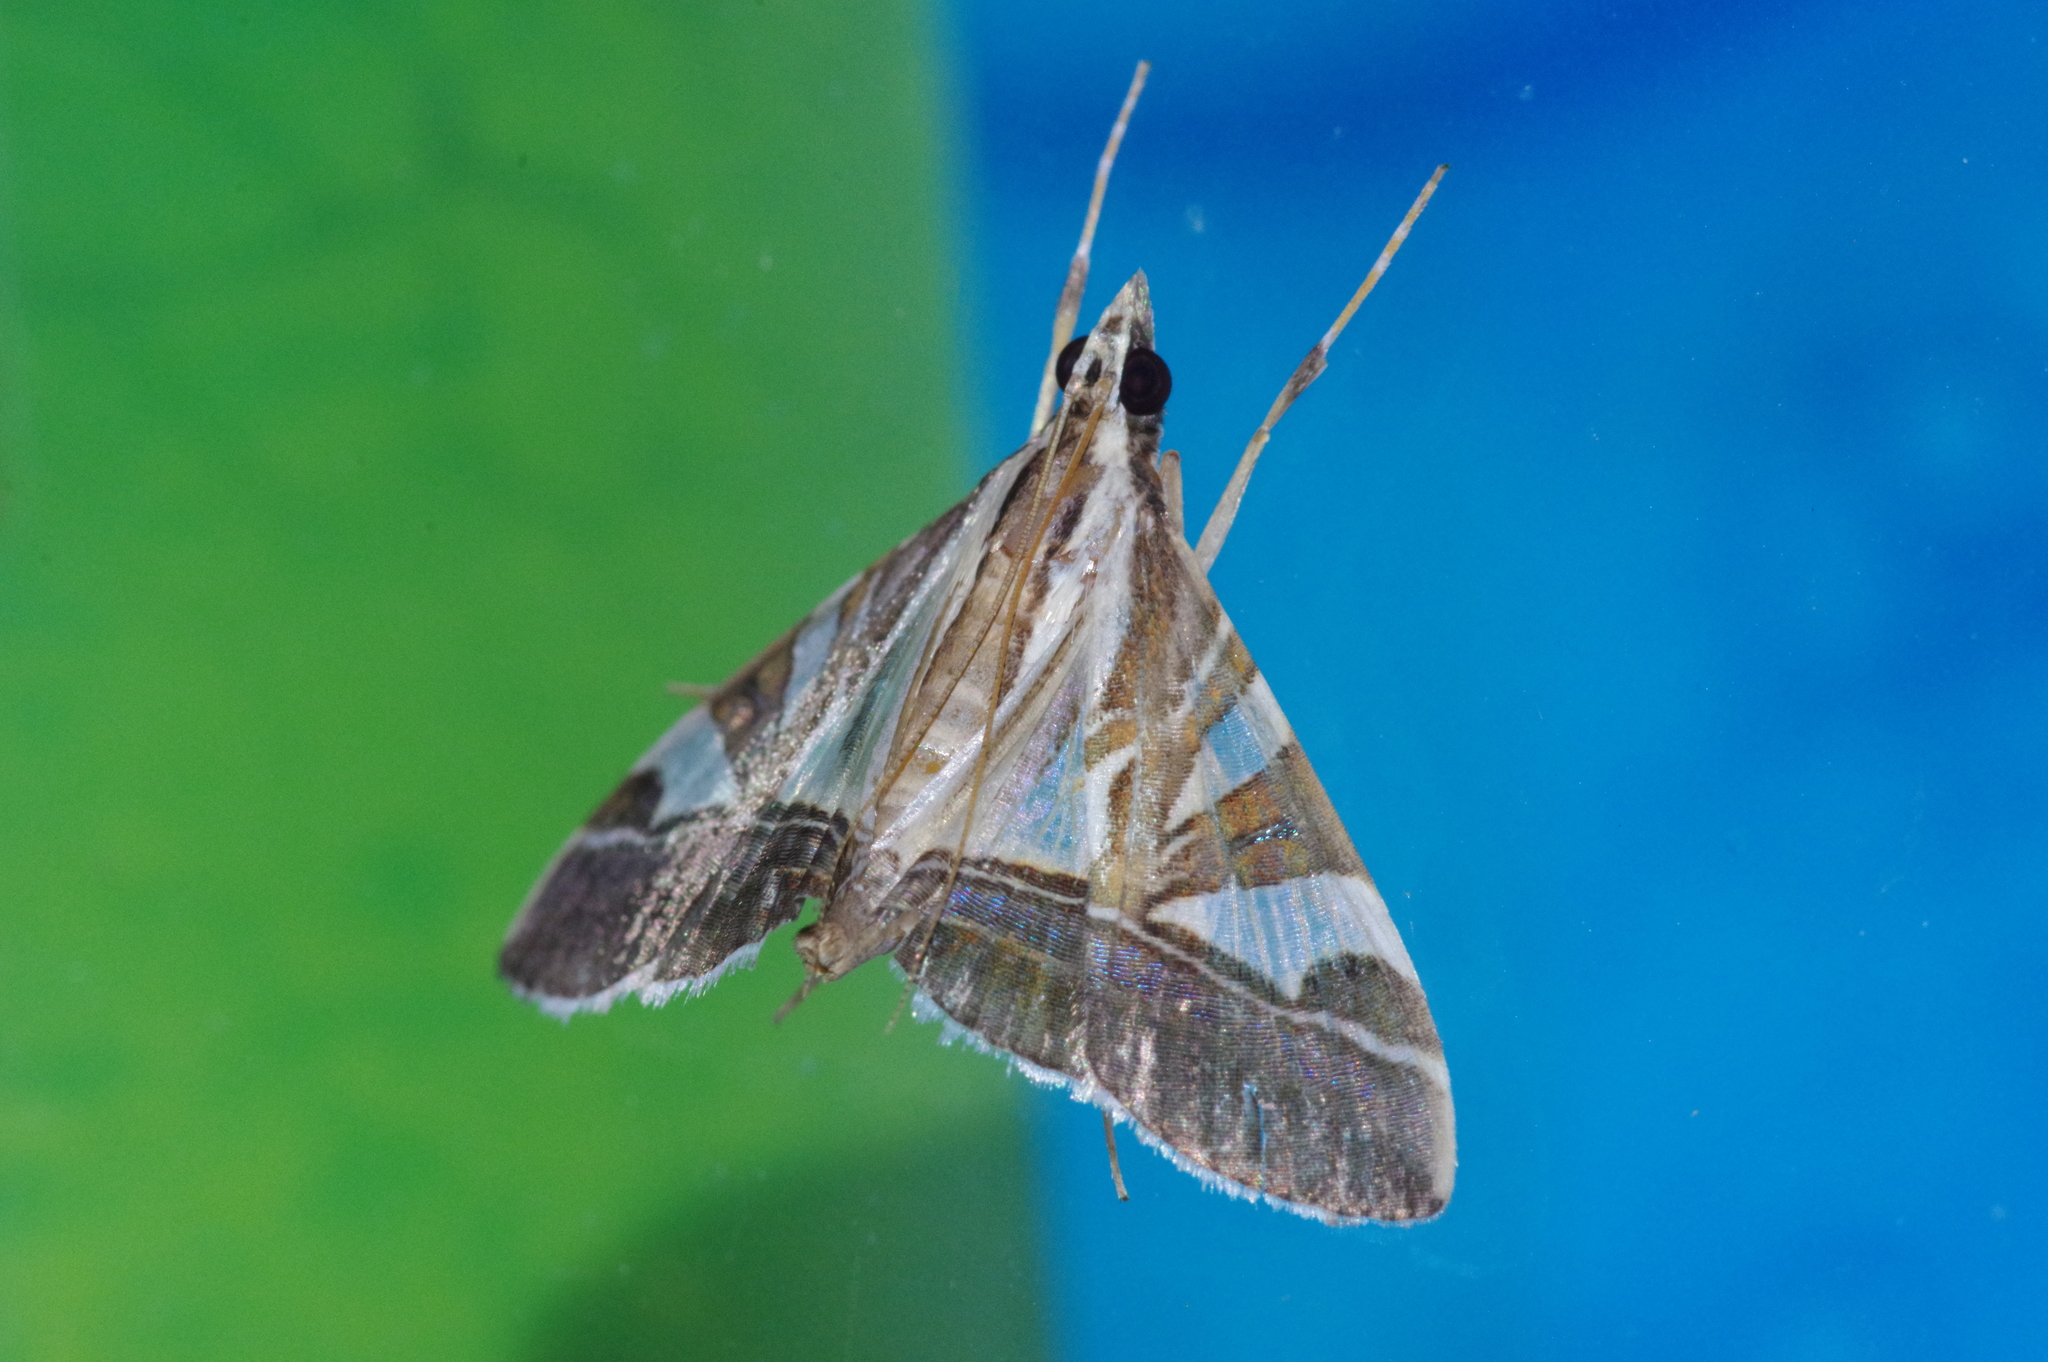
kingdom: Animalia
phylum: Arthropoda
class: Insecta
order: Lepidoptera
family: Crambidae
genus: Agrioglypta
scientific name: Agrioglypta itysalis
